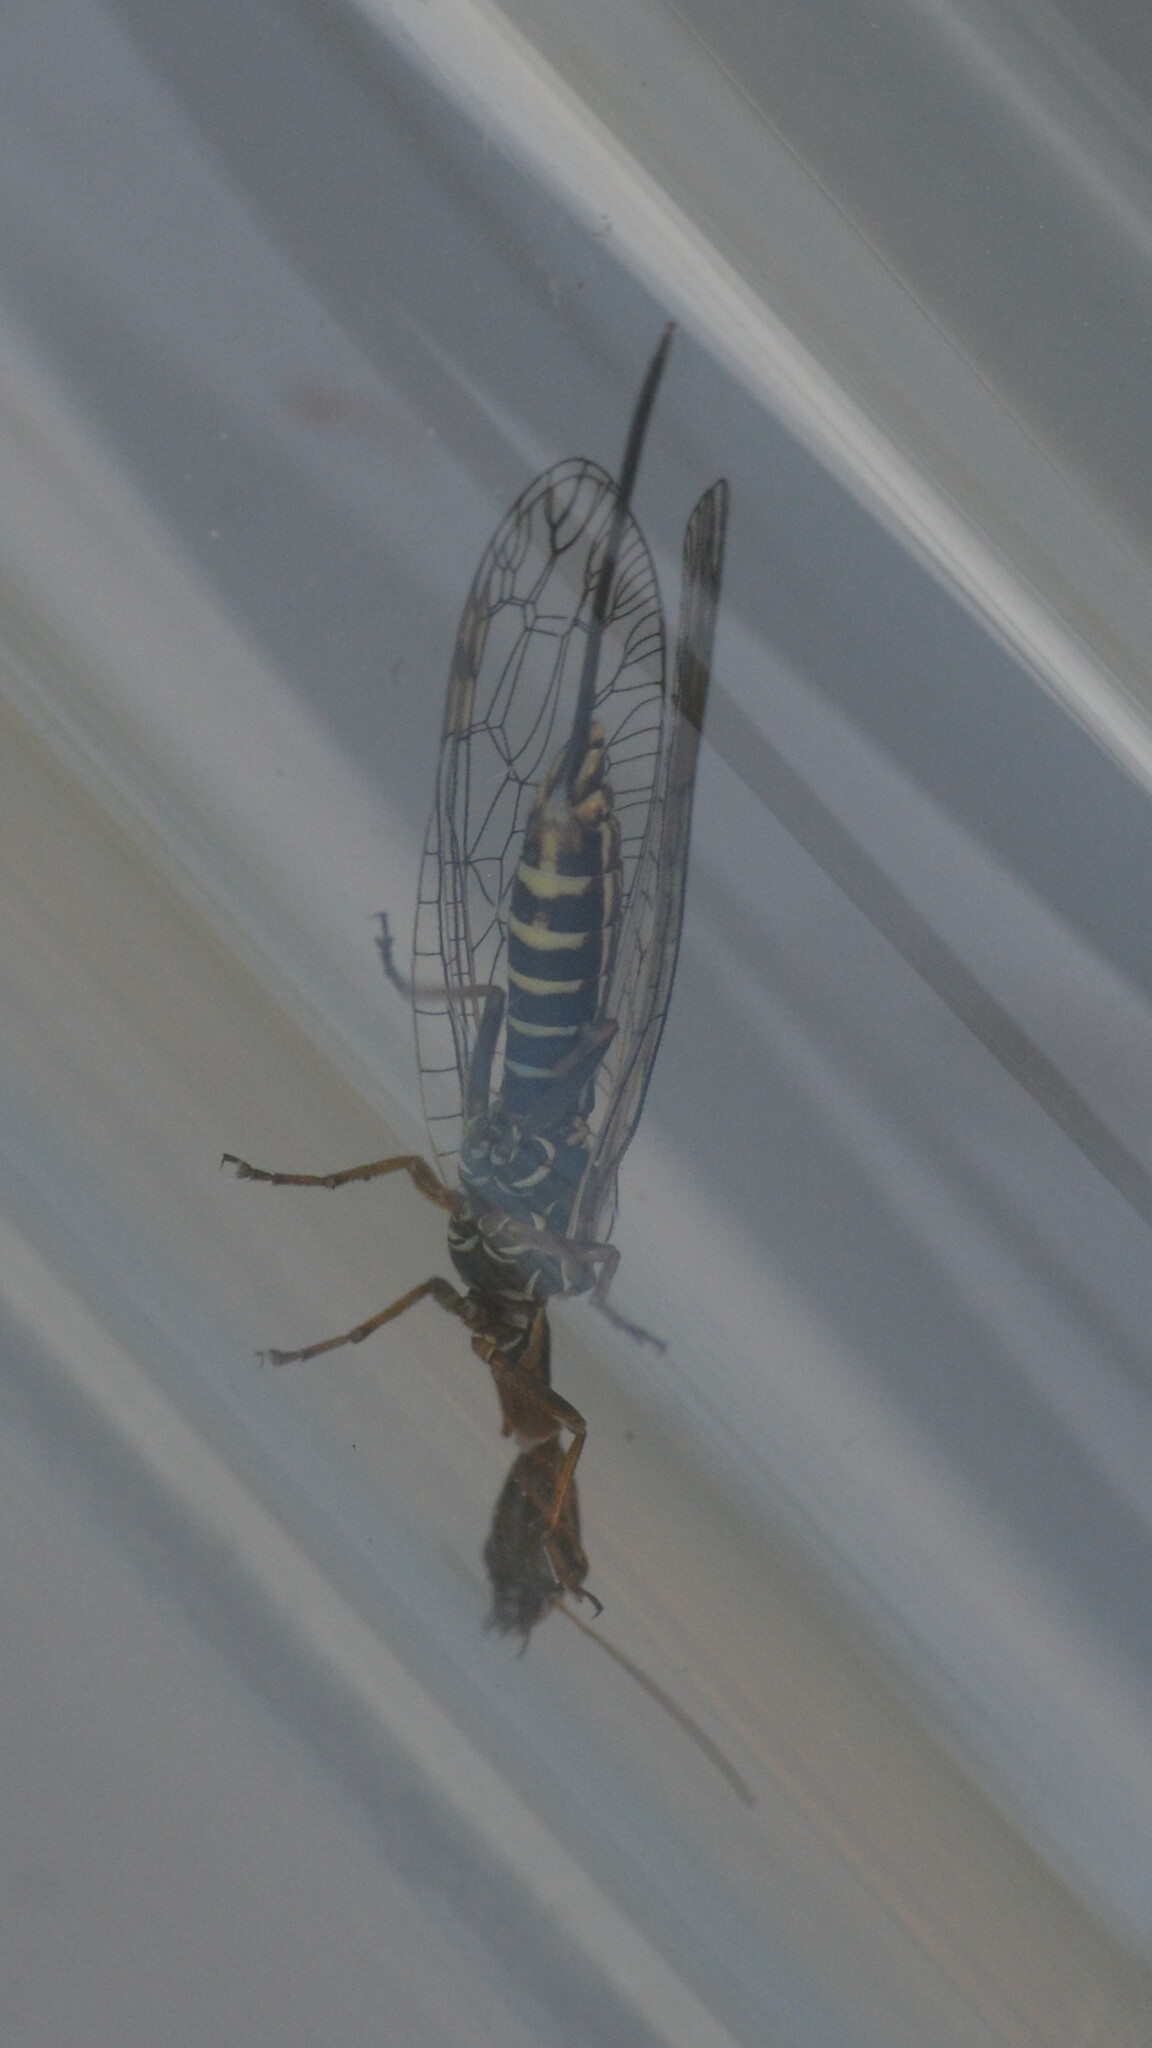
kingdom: Animalia
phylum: Arthropoda
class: Insecta
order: Raphidioptera
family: Raphidiidae
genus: Xanthostigma
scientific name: Xanthostigma xanthostigma
